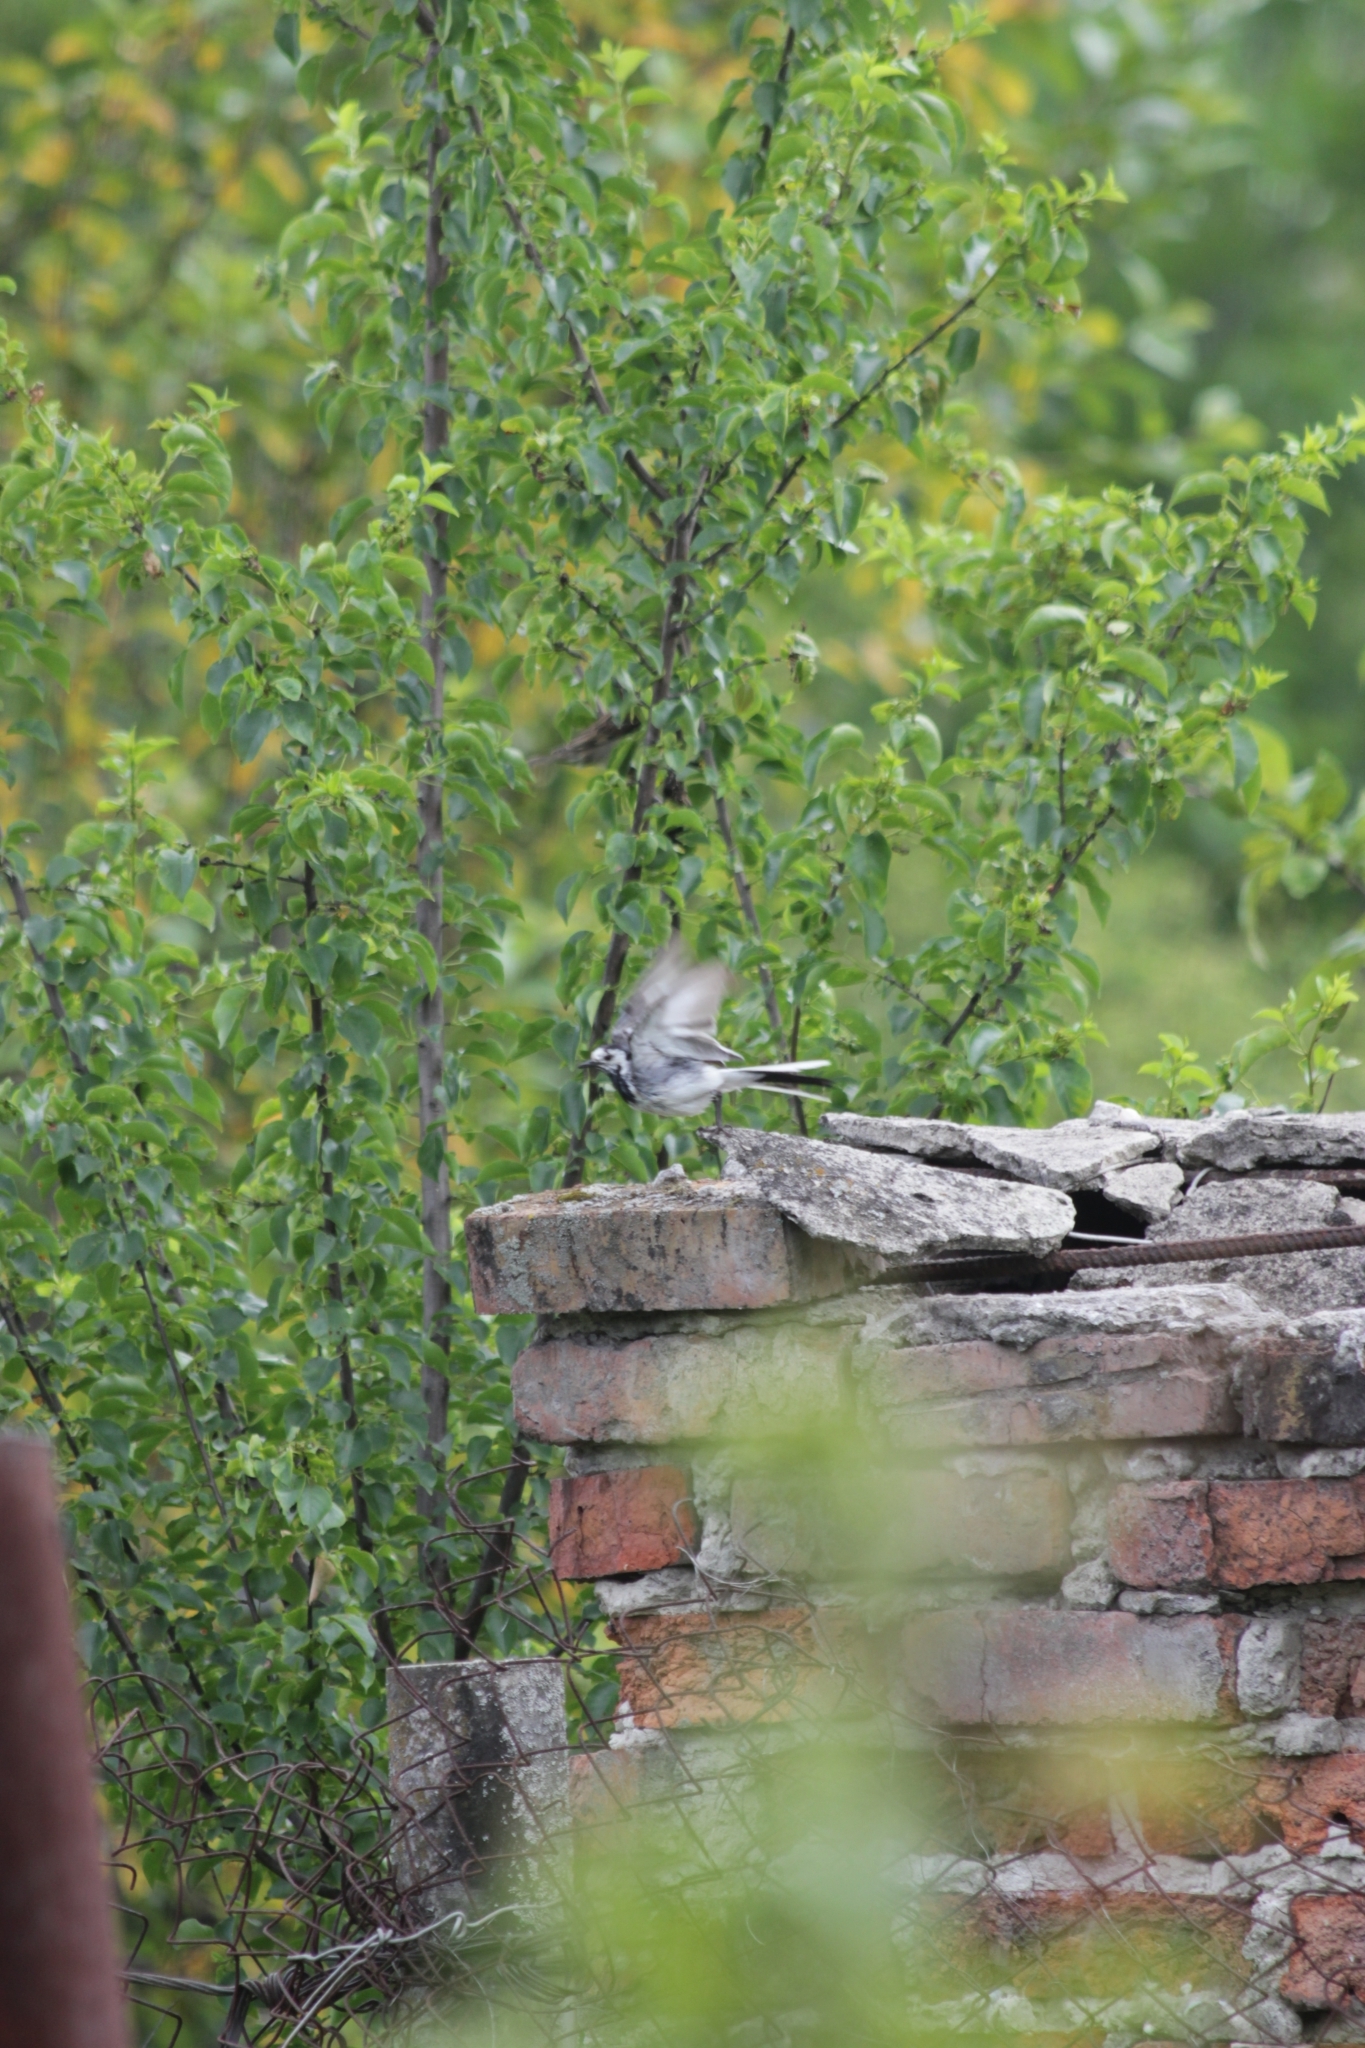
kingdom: Animalia
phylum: Chordata
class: Aves
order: Passeriformes
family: Motacillidae
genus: Motacilla
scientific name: Motacilla alba
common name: White wagtail
